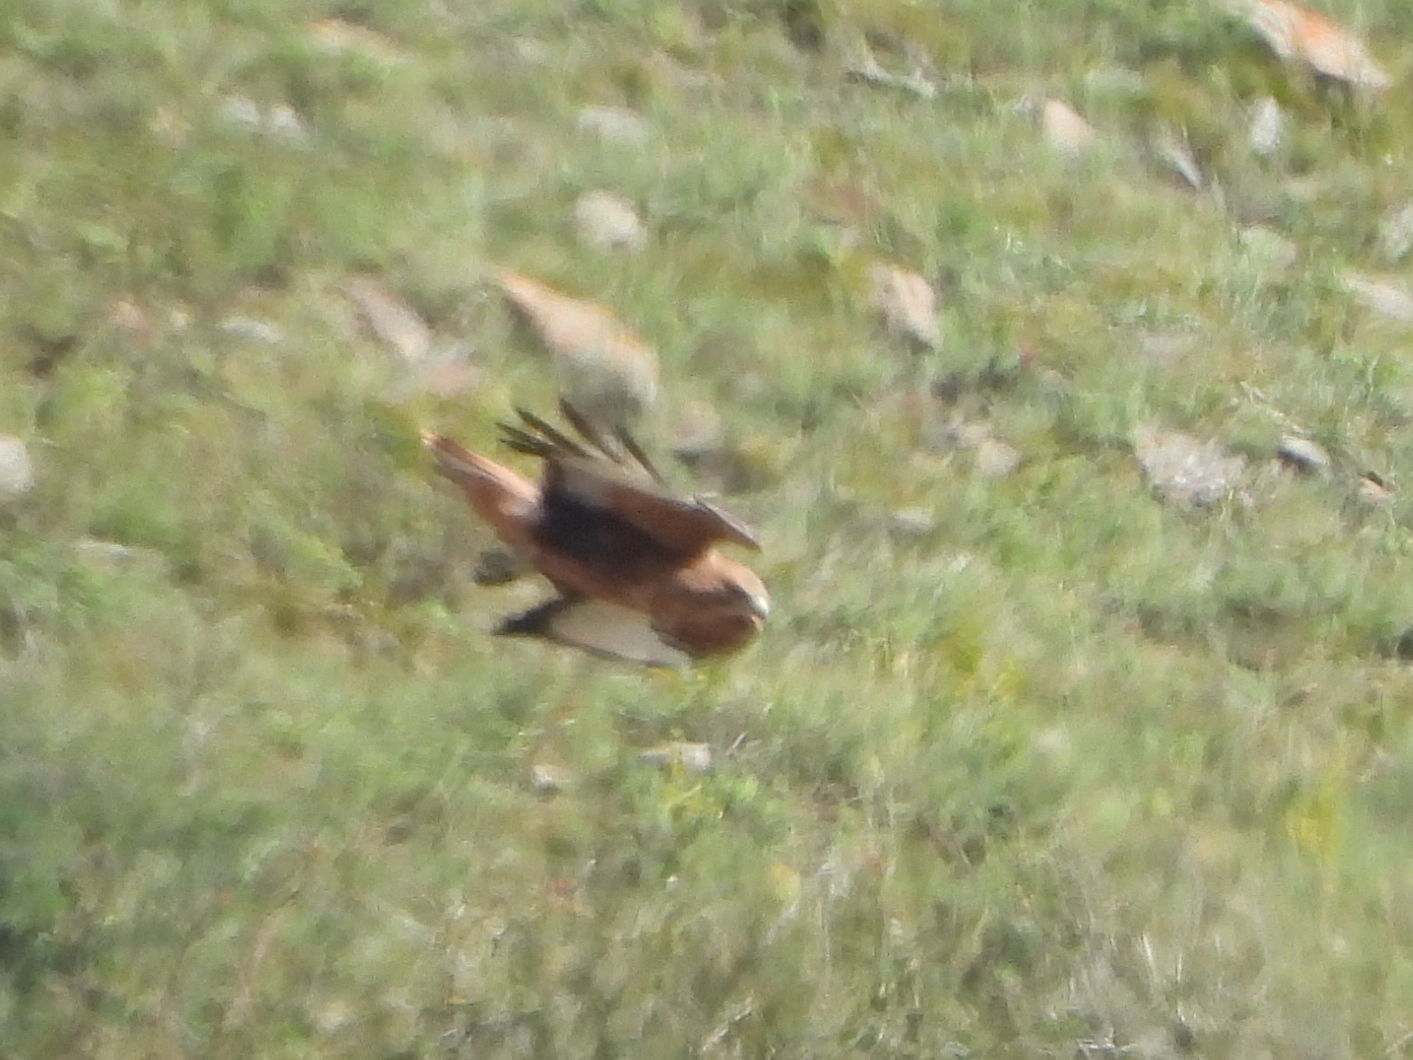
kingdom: Animalia
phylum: Chordata
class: Aves
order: Accipitriformes
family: Accipitridae
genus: Buteo
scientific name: Buteo buteo
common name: Common buzzard
